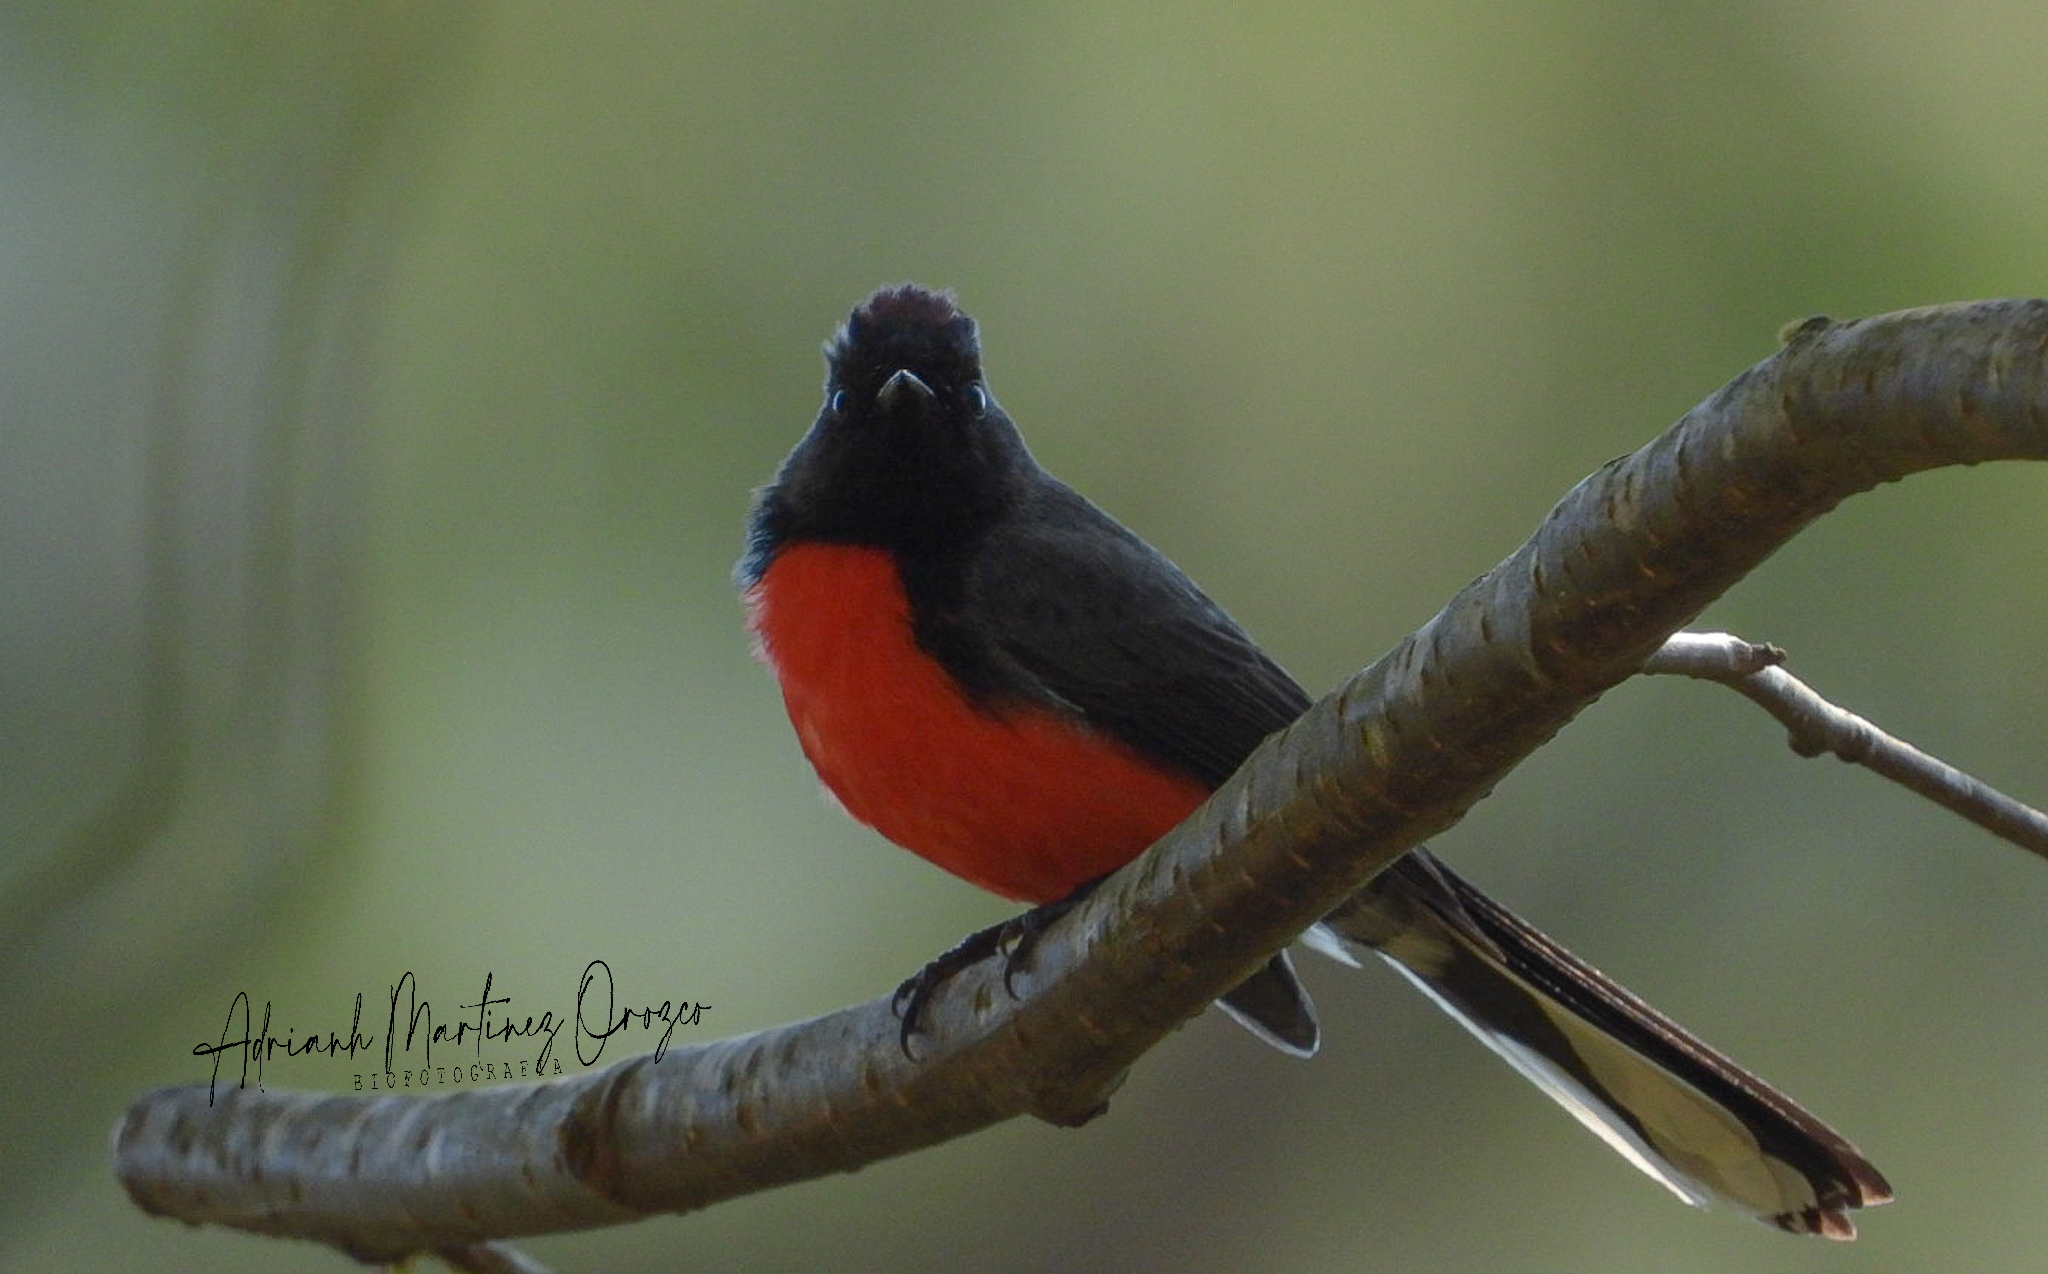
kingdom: Animalia
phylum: Chordata
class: Aves
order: Passeriformes
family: Parulidae
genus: Myioborus
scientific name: Myioborus miniatus
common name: Slate-throated redstart
